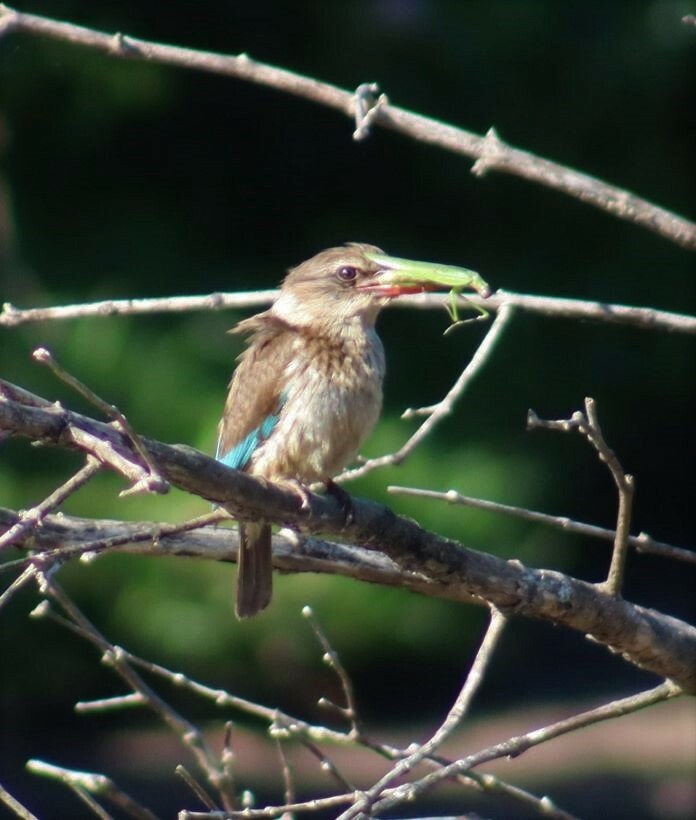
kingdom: Animalia
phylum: Chordata
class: Aves
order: Coraciiformes
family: Alcedinidae
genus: Halcyon
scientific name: Halcyon albiventris
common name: Brown-hooded kingfisher
